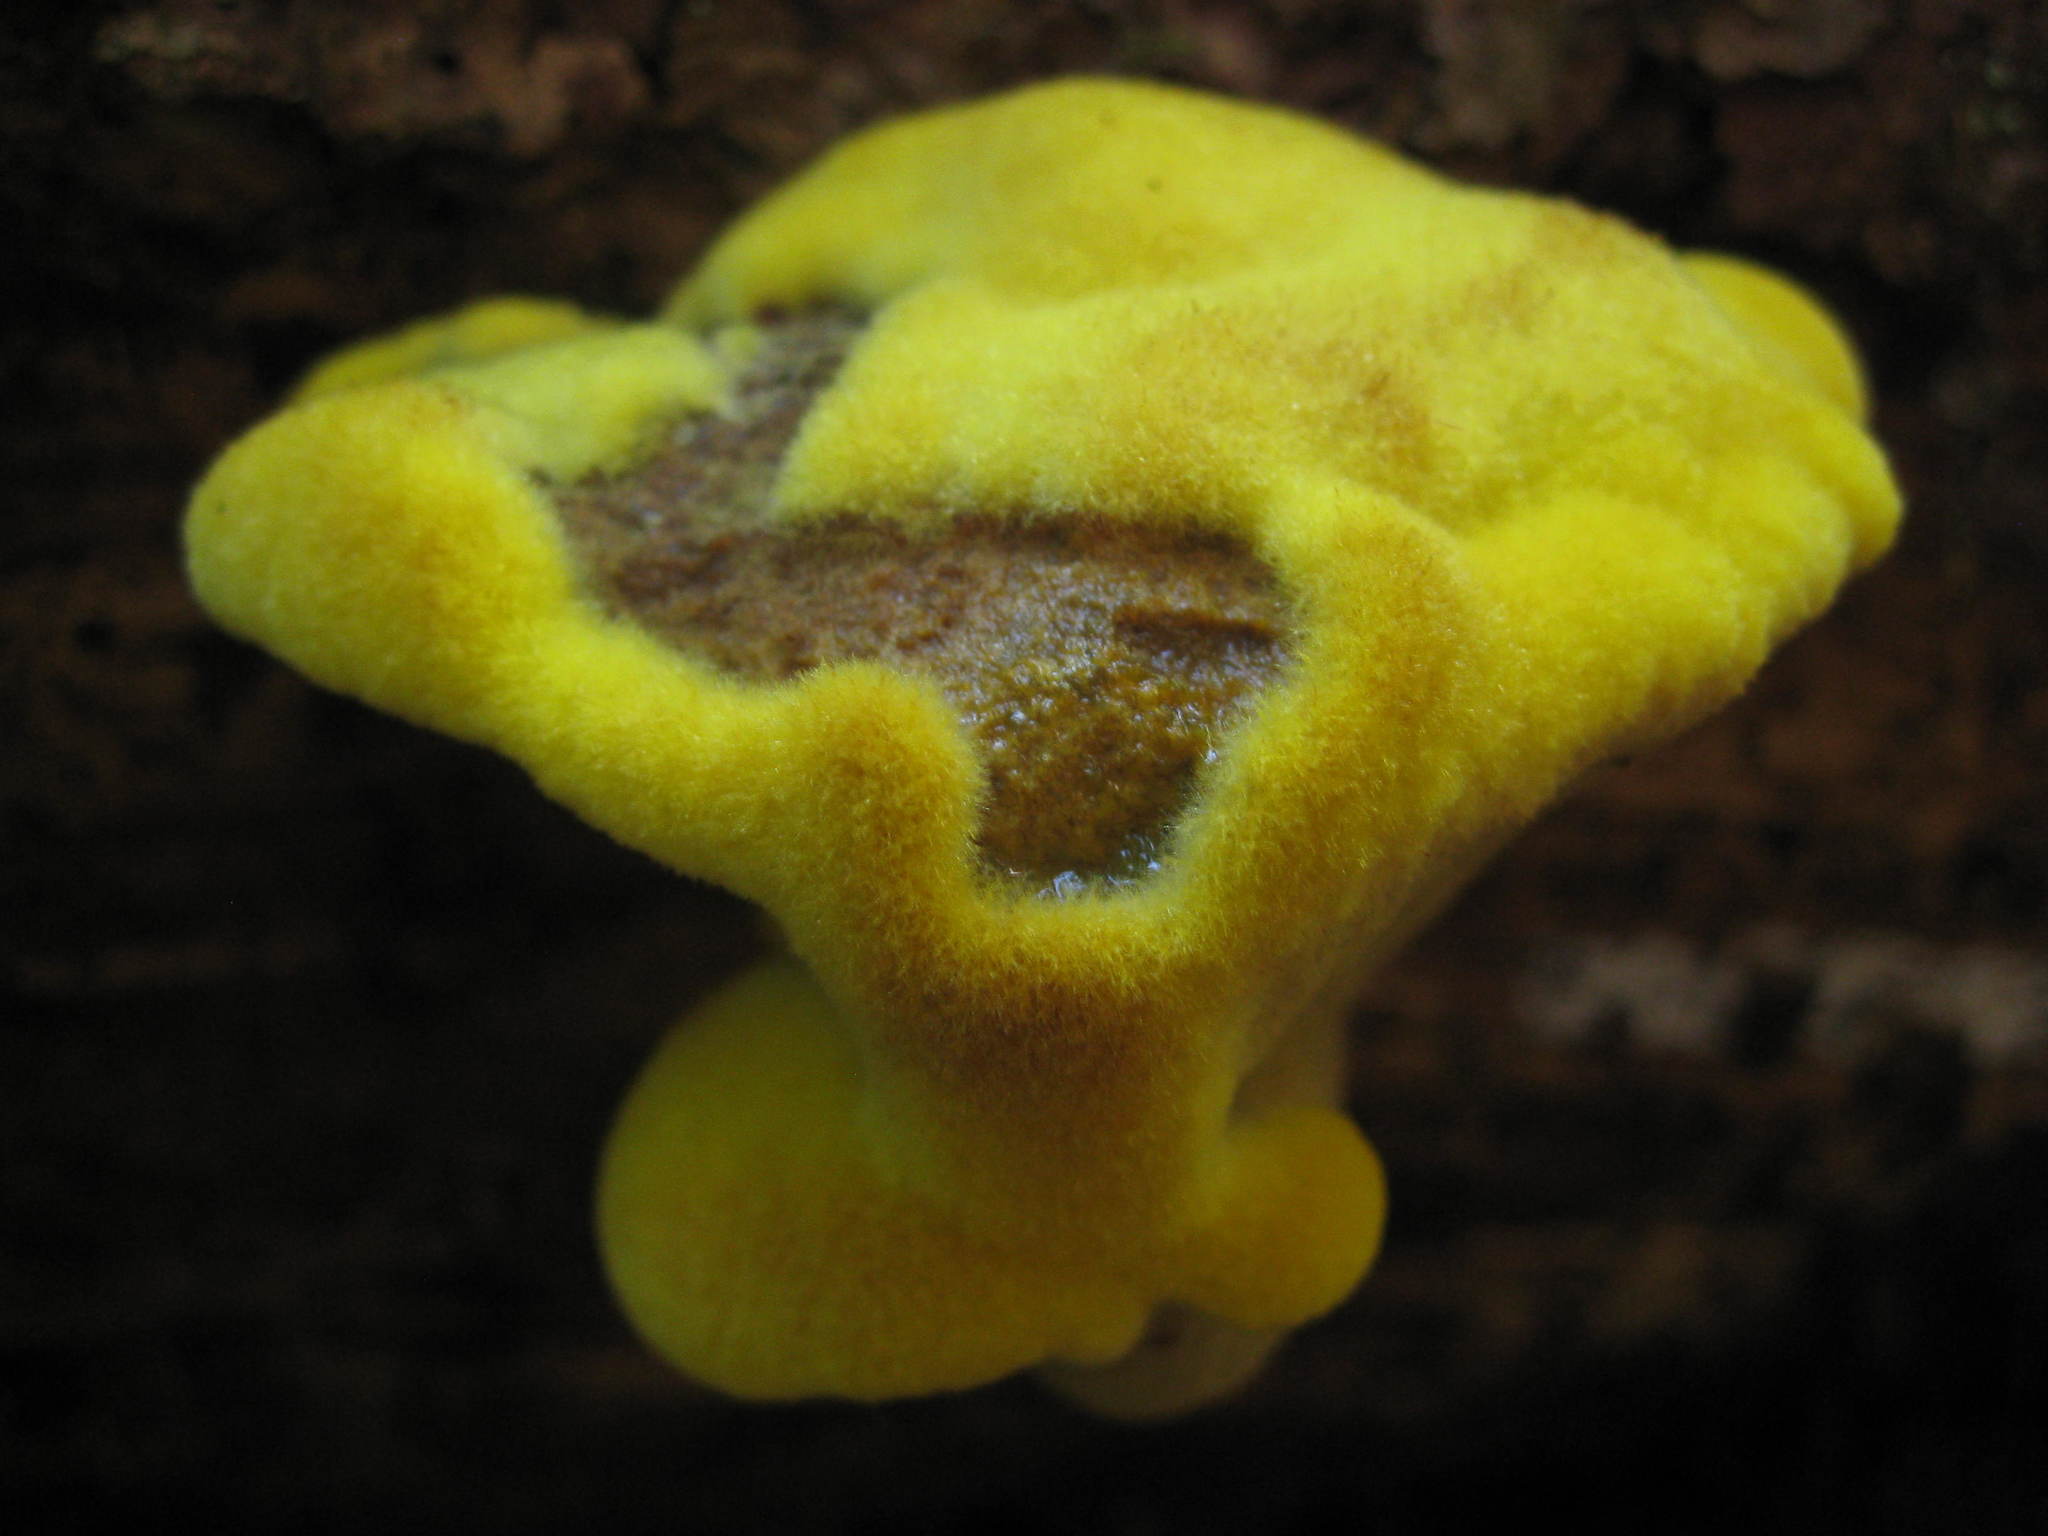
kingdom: Fungi
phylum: Basidiomycota
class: Agaricomycetes
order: Polyporales
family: Laetiporaceae
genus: Phaeolus
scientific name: Phaeolus schweinitzii
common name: Dyer's mazegill
